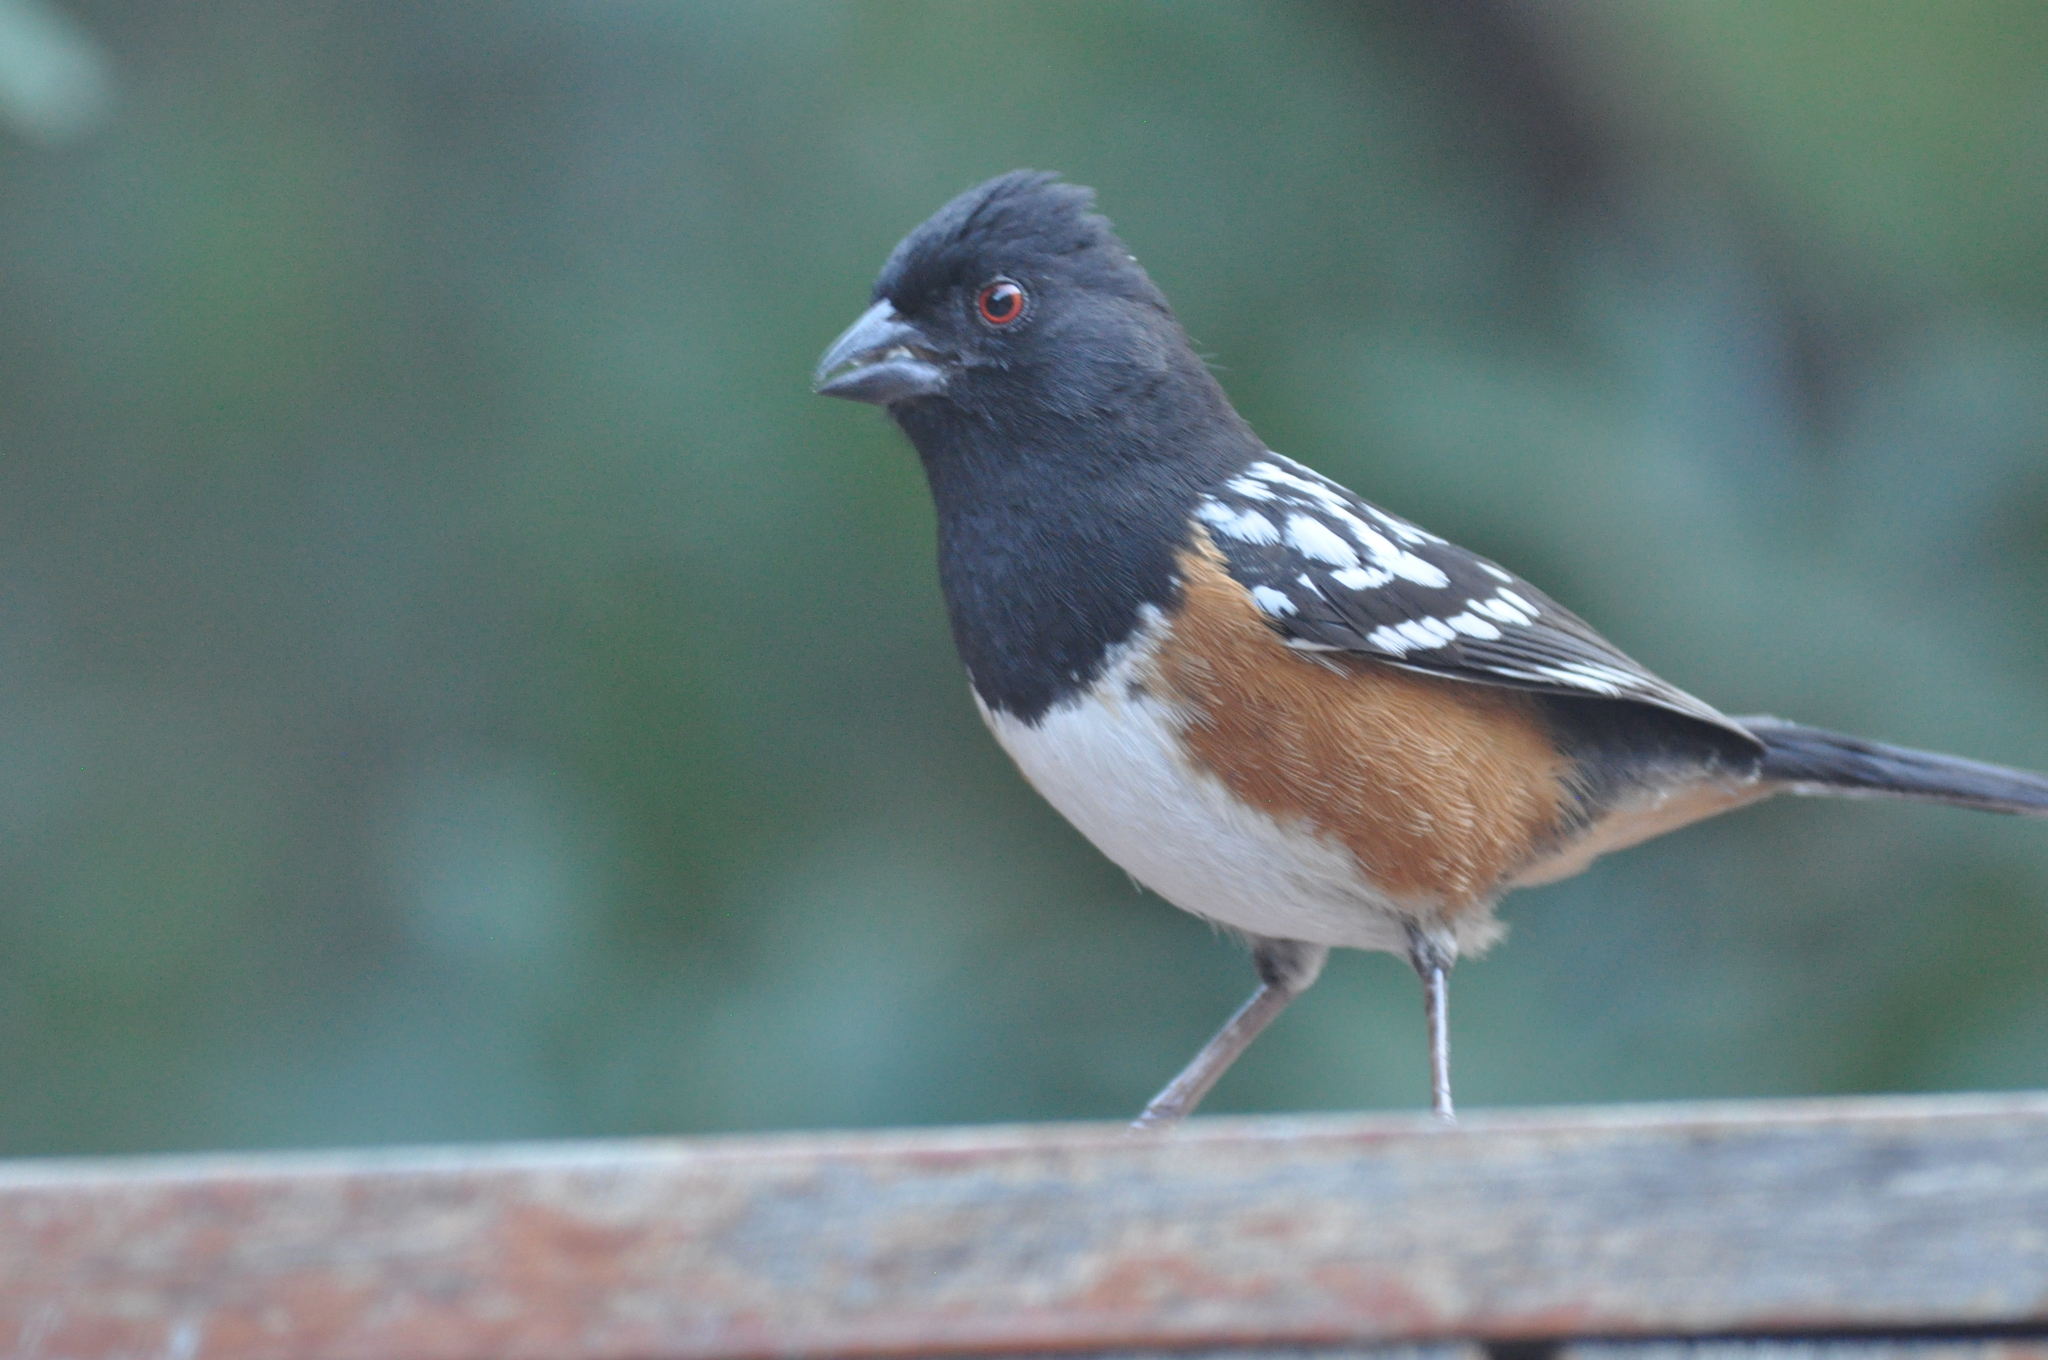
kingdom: Animalia
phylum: Chordata
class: Aves
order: Passeriformes
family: Passerellidae
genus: Pipilo
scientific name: Pipilo maculatus
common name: Spotted towhee
